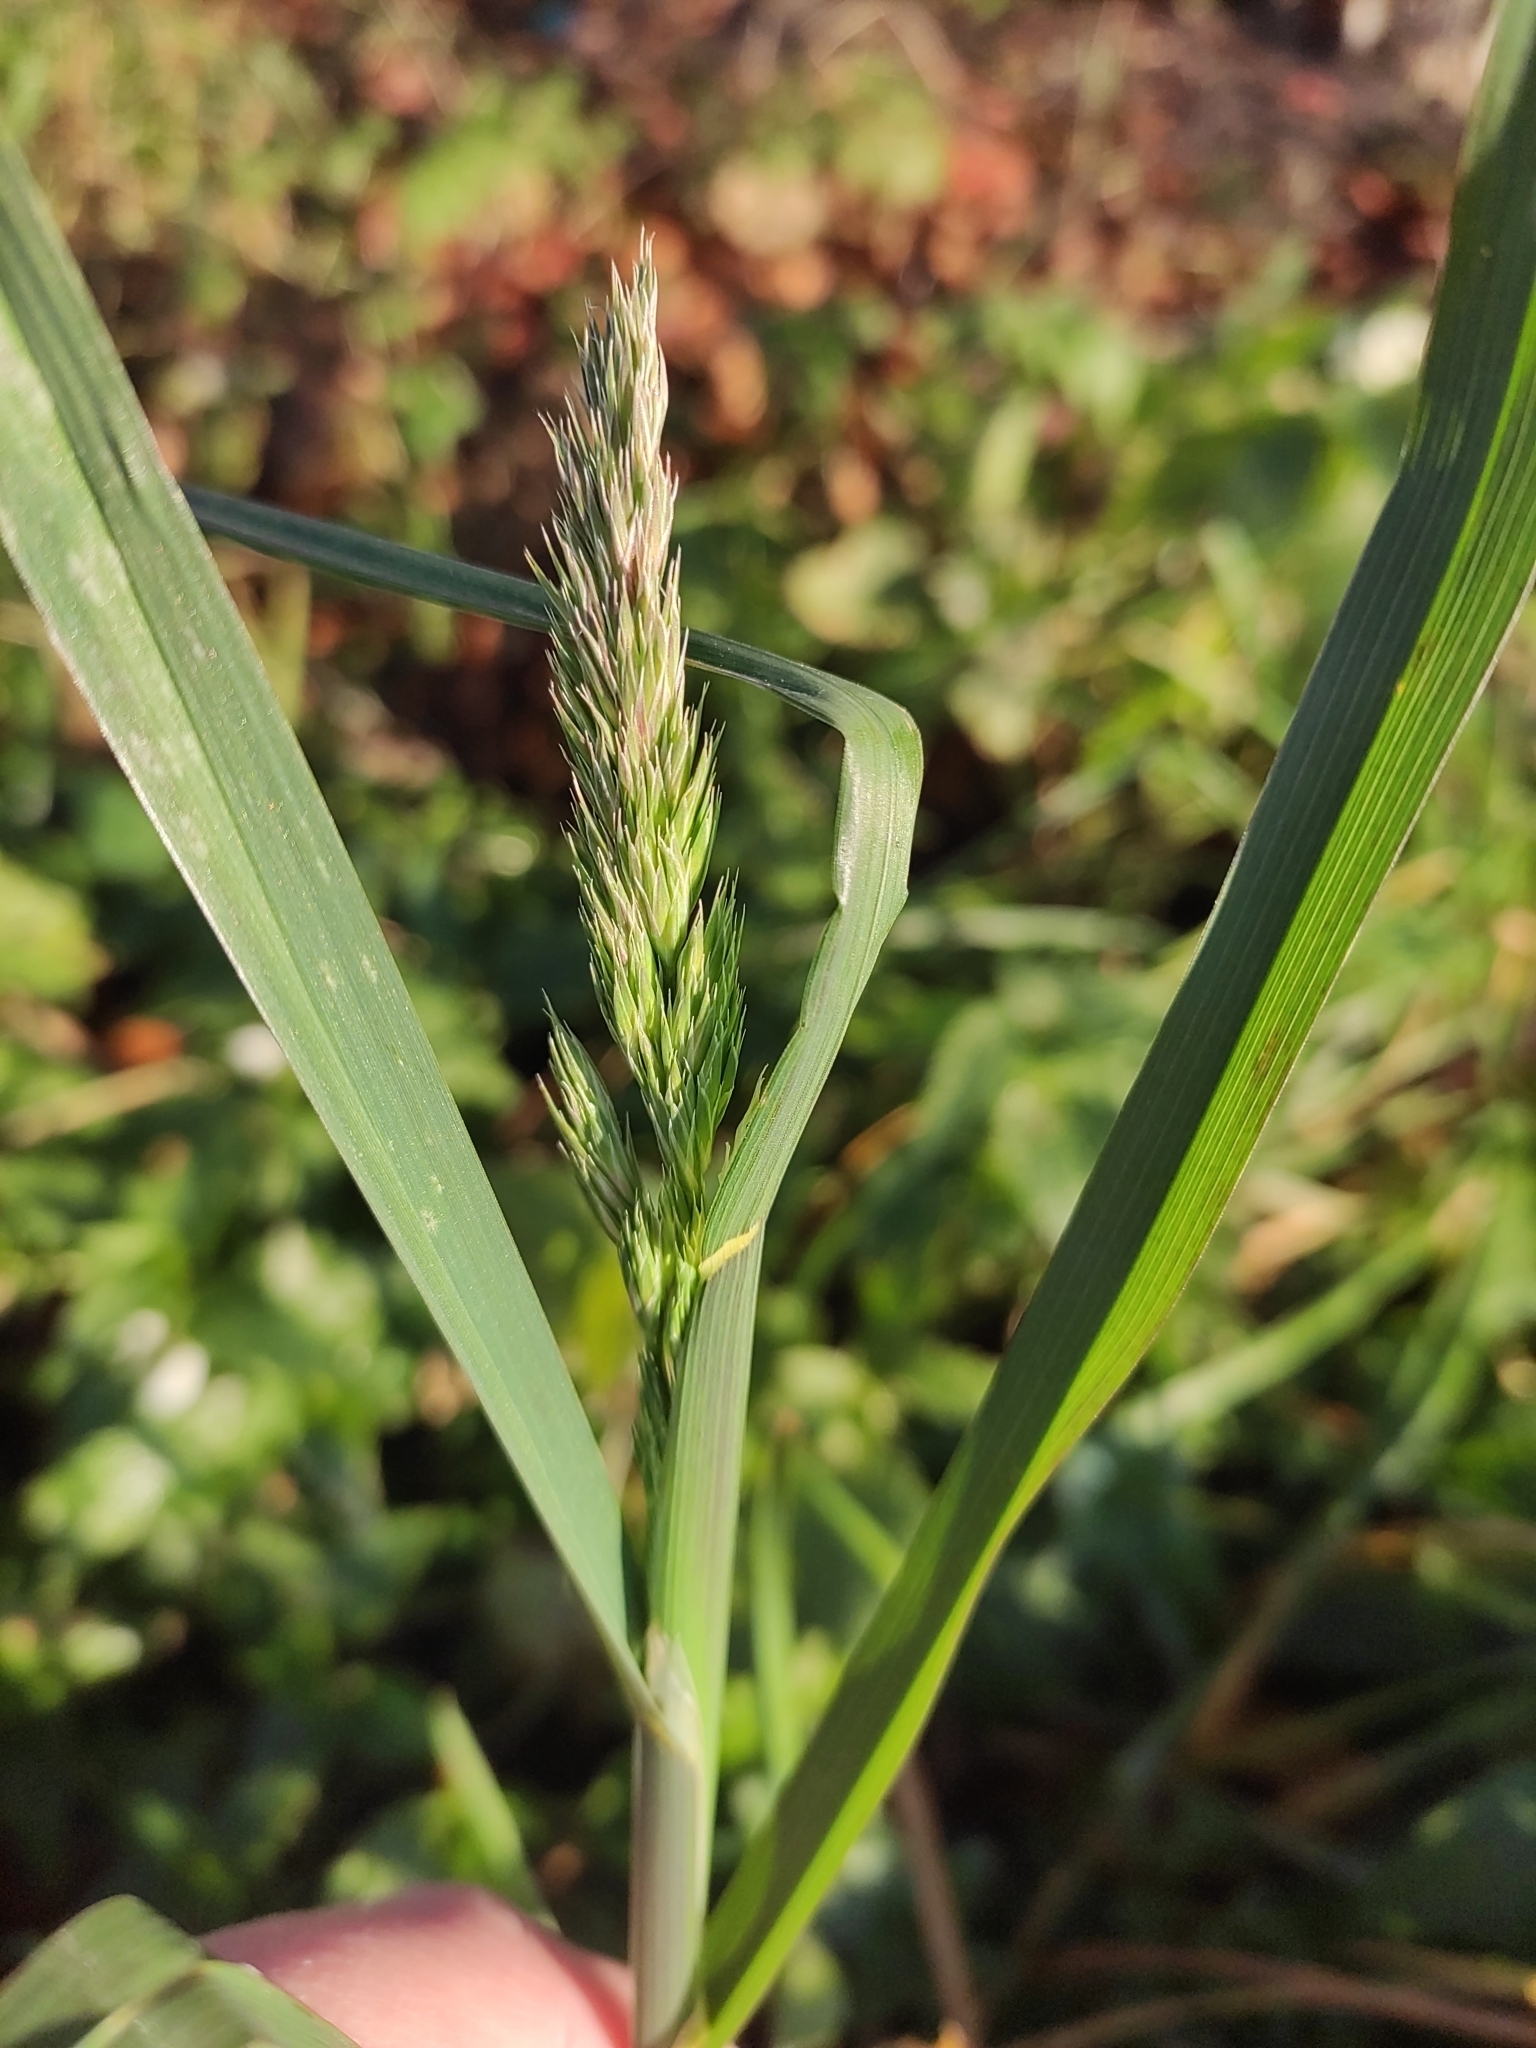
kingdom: Plantae
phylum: Tracheophyta
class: Liliopsida
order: Poales
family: Poaceae
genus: Dactylis
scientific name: Dactylis glomerata
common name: Orchardgrass
